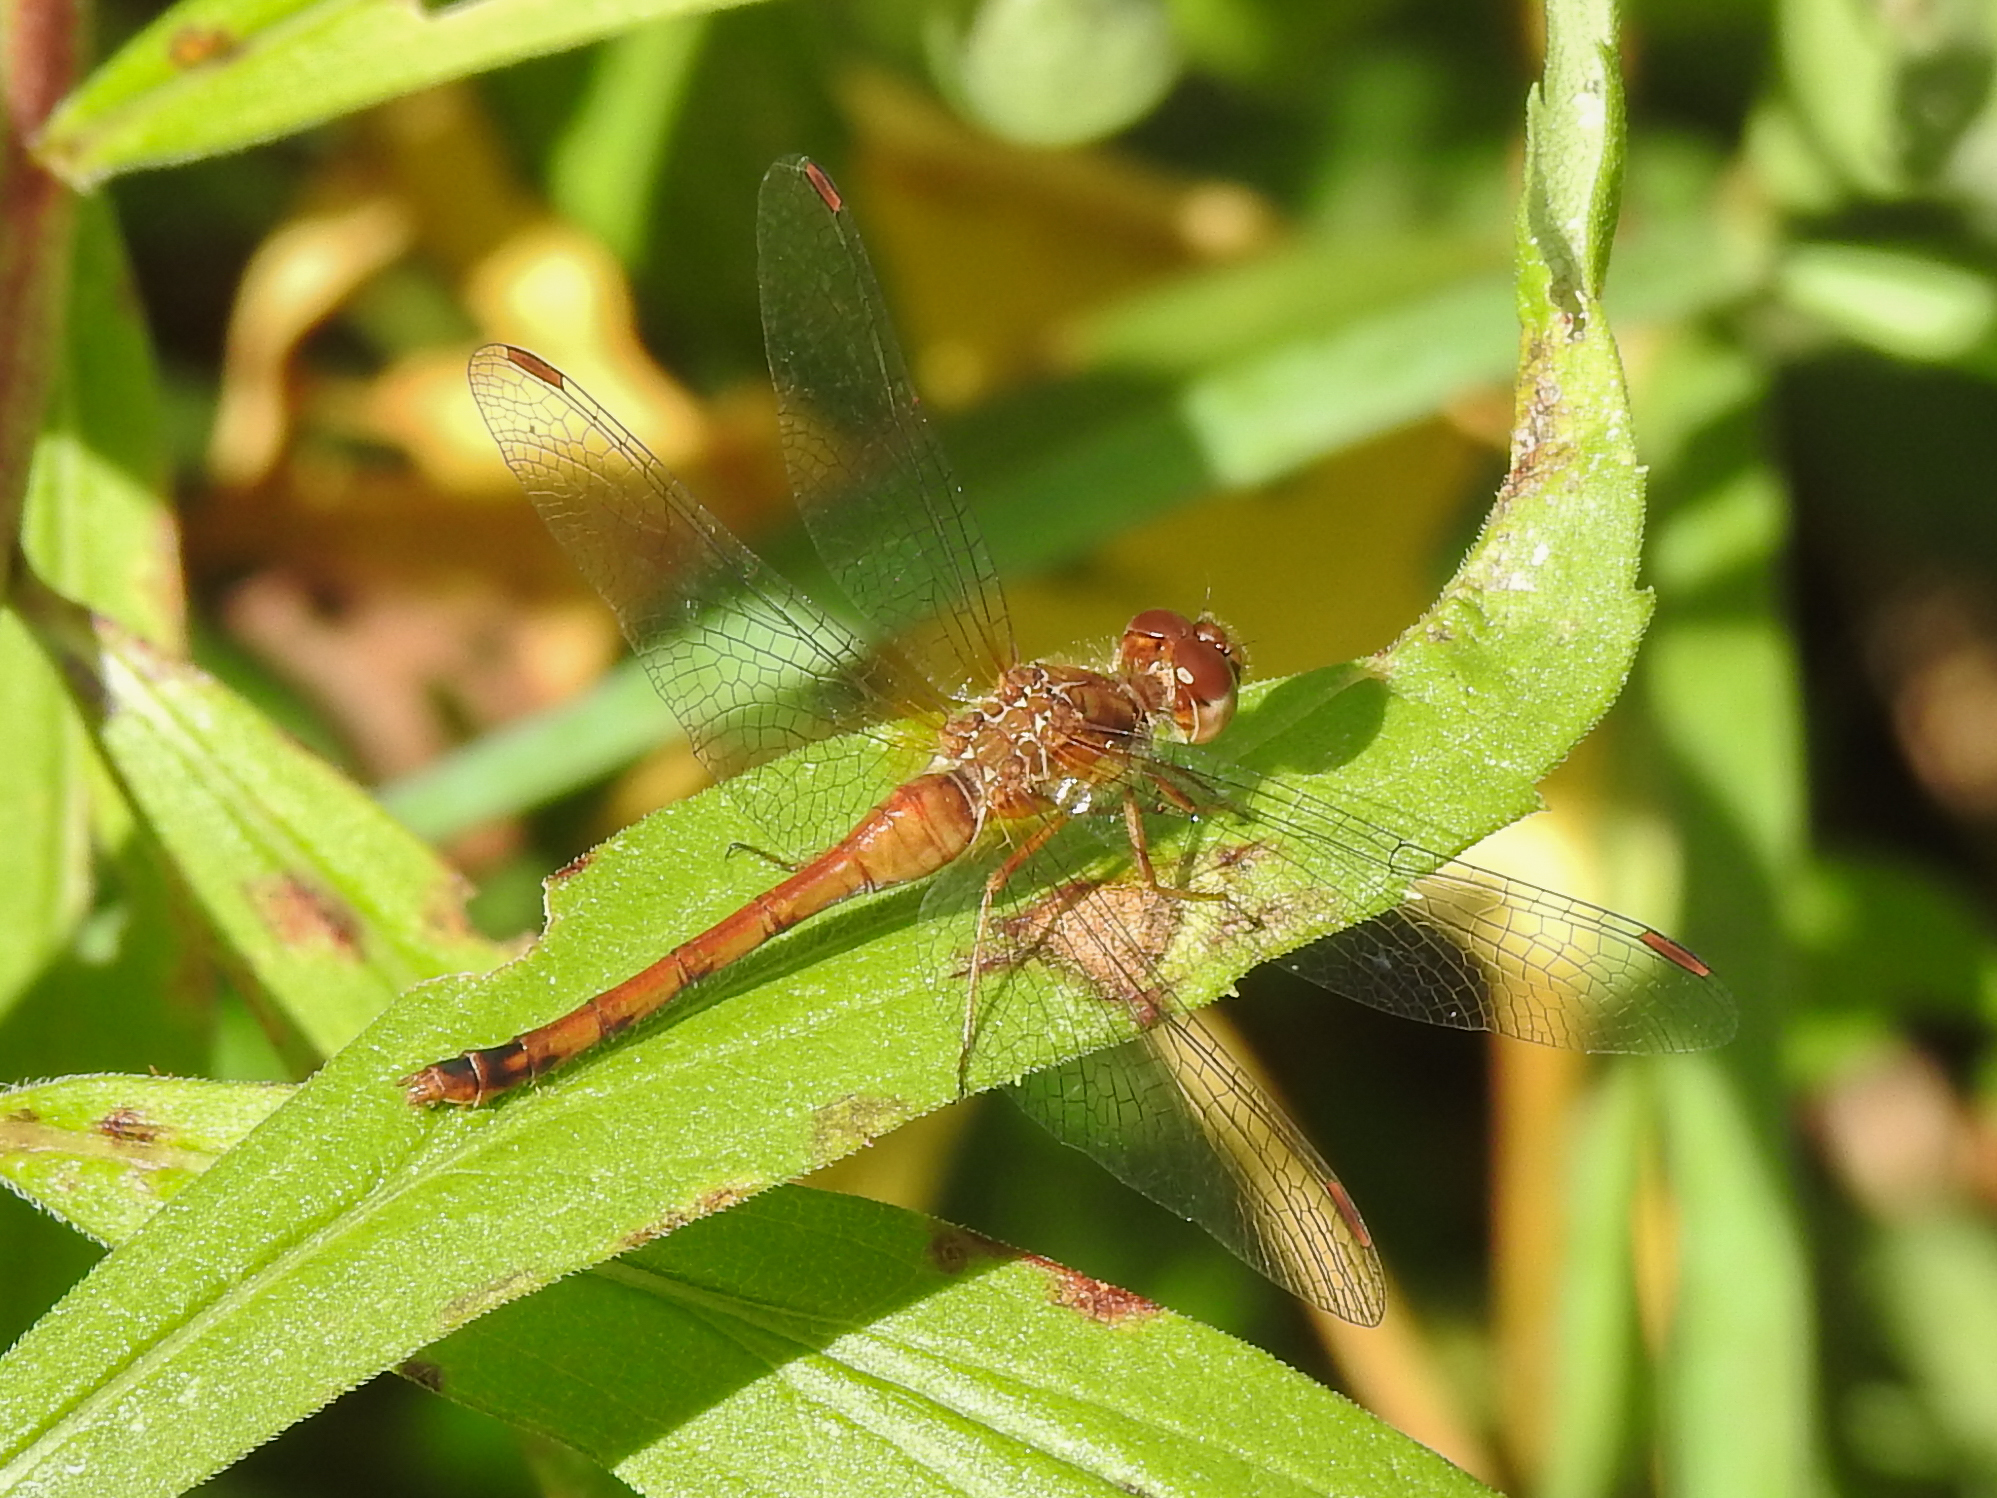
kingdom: Animalia
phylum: Arthropoda
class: Insecta
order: Odonata
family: Libellulidae
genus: Sympetrum
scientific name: Sympetrum vicinum
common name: Autumn meadowhawk
